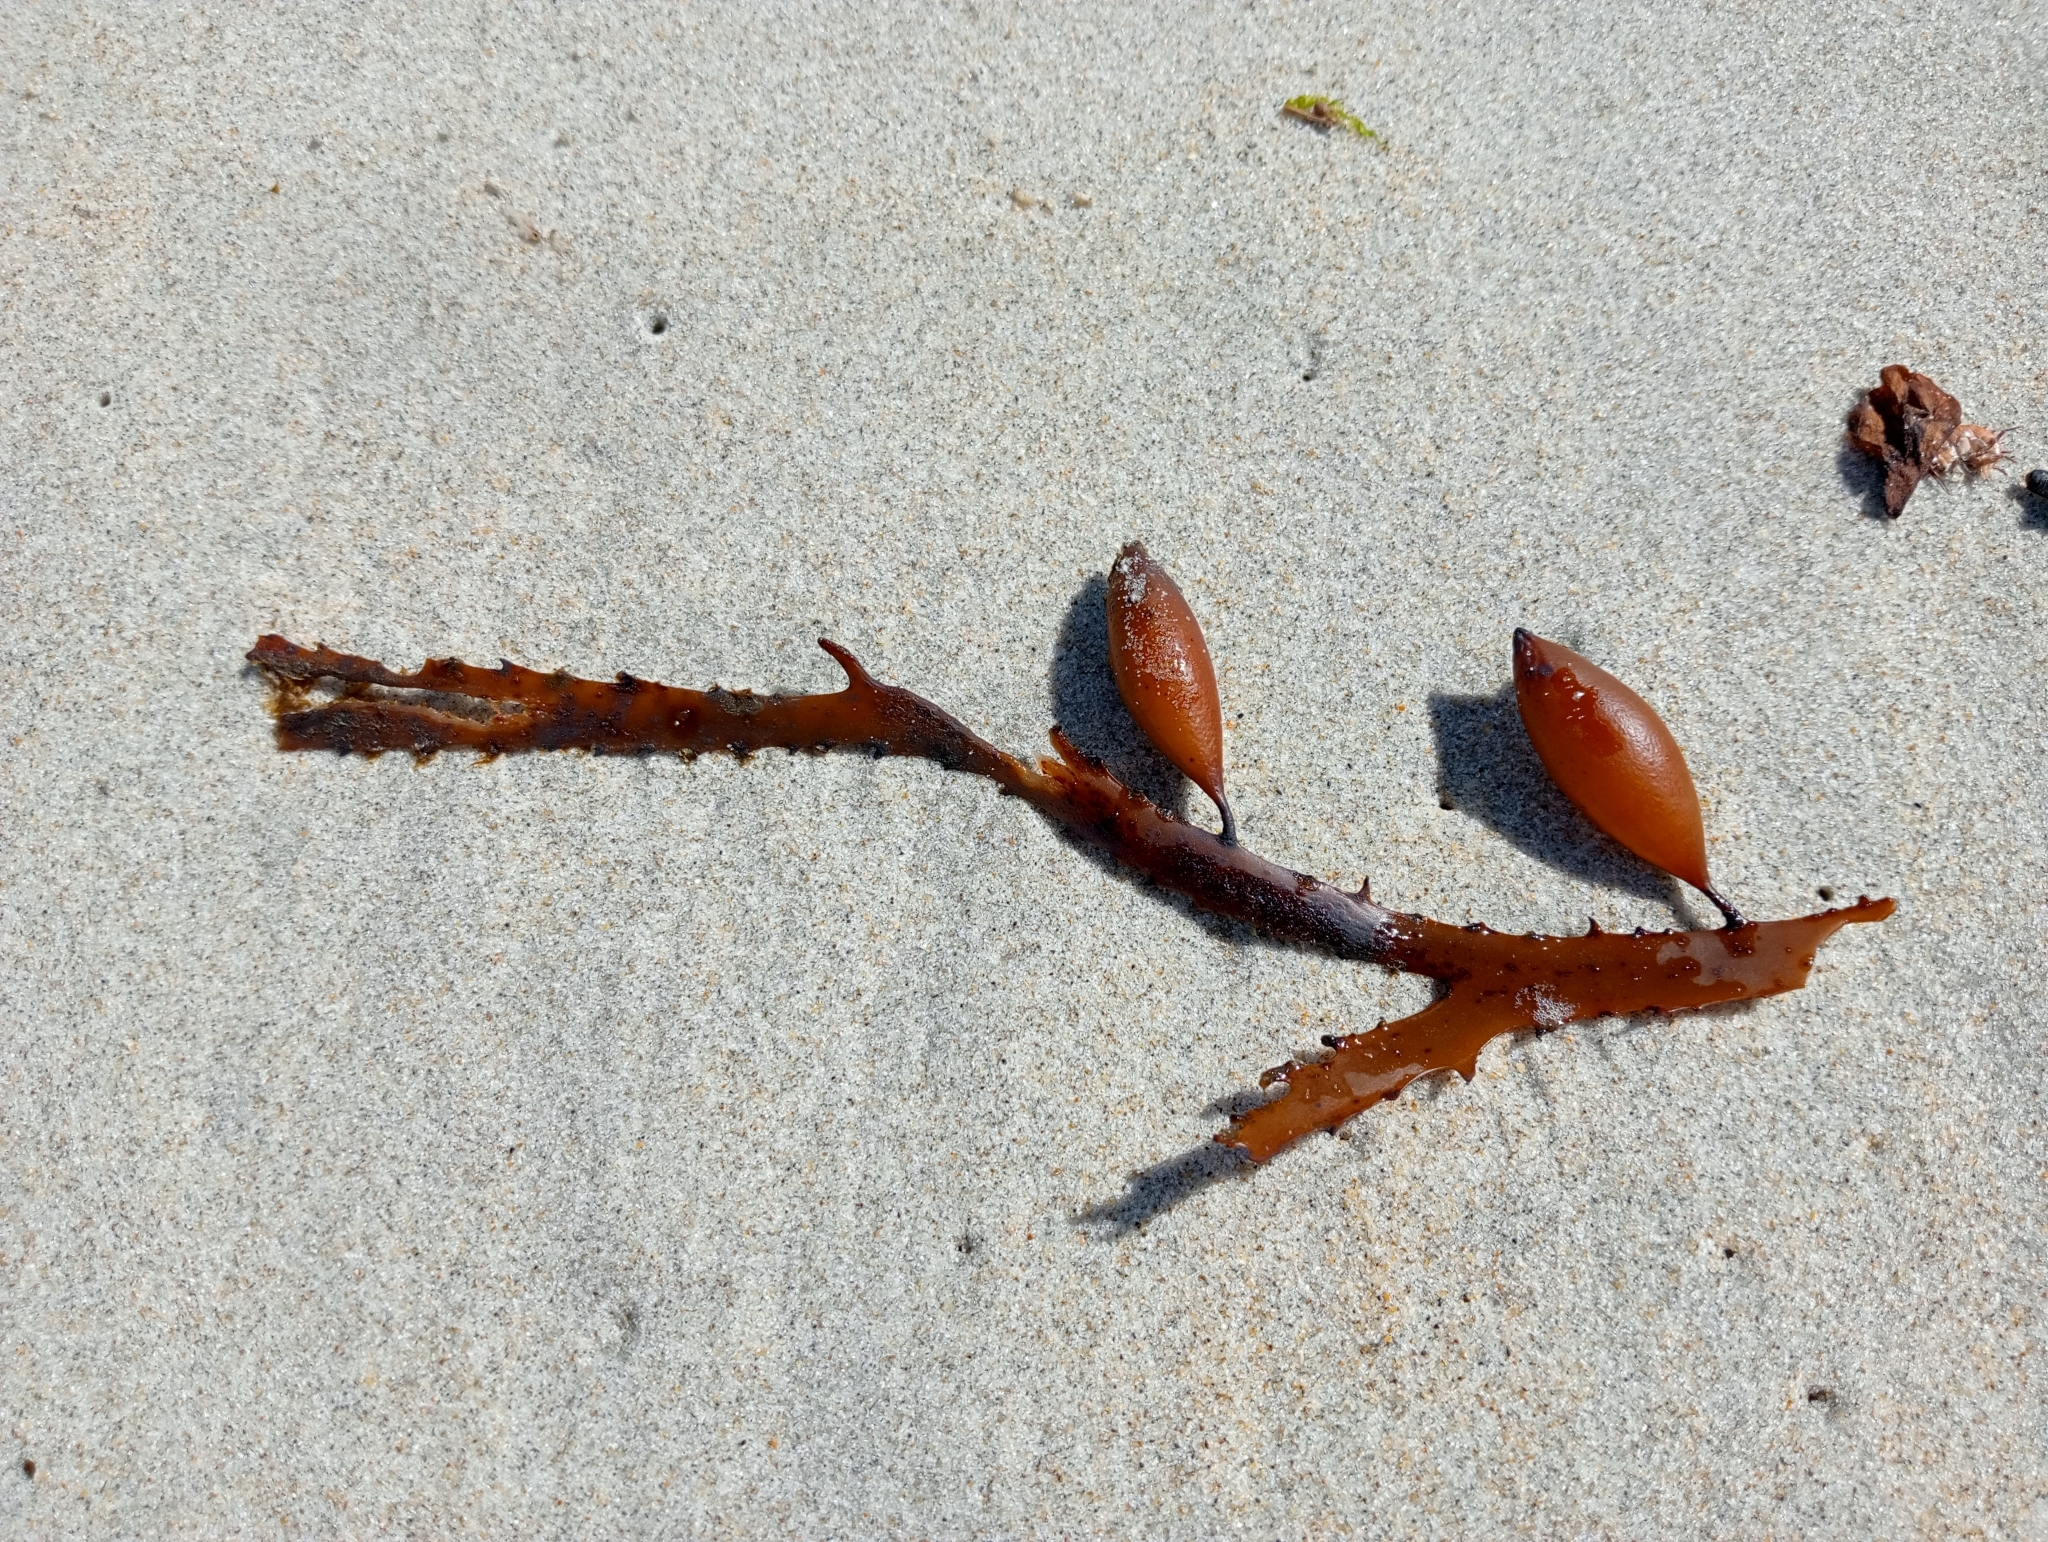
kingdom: Chromista
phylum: Ochrophyta
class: Phaeophyceae
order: Fucales
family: Seirococcaceae
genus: Marginariella
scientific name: Marginariella boryana
